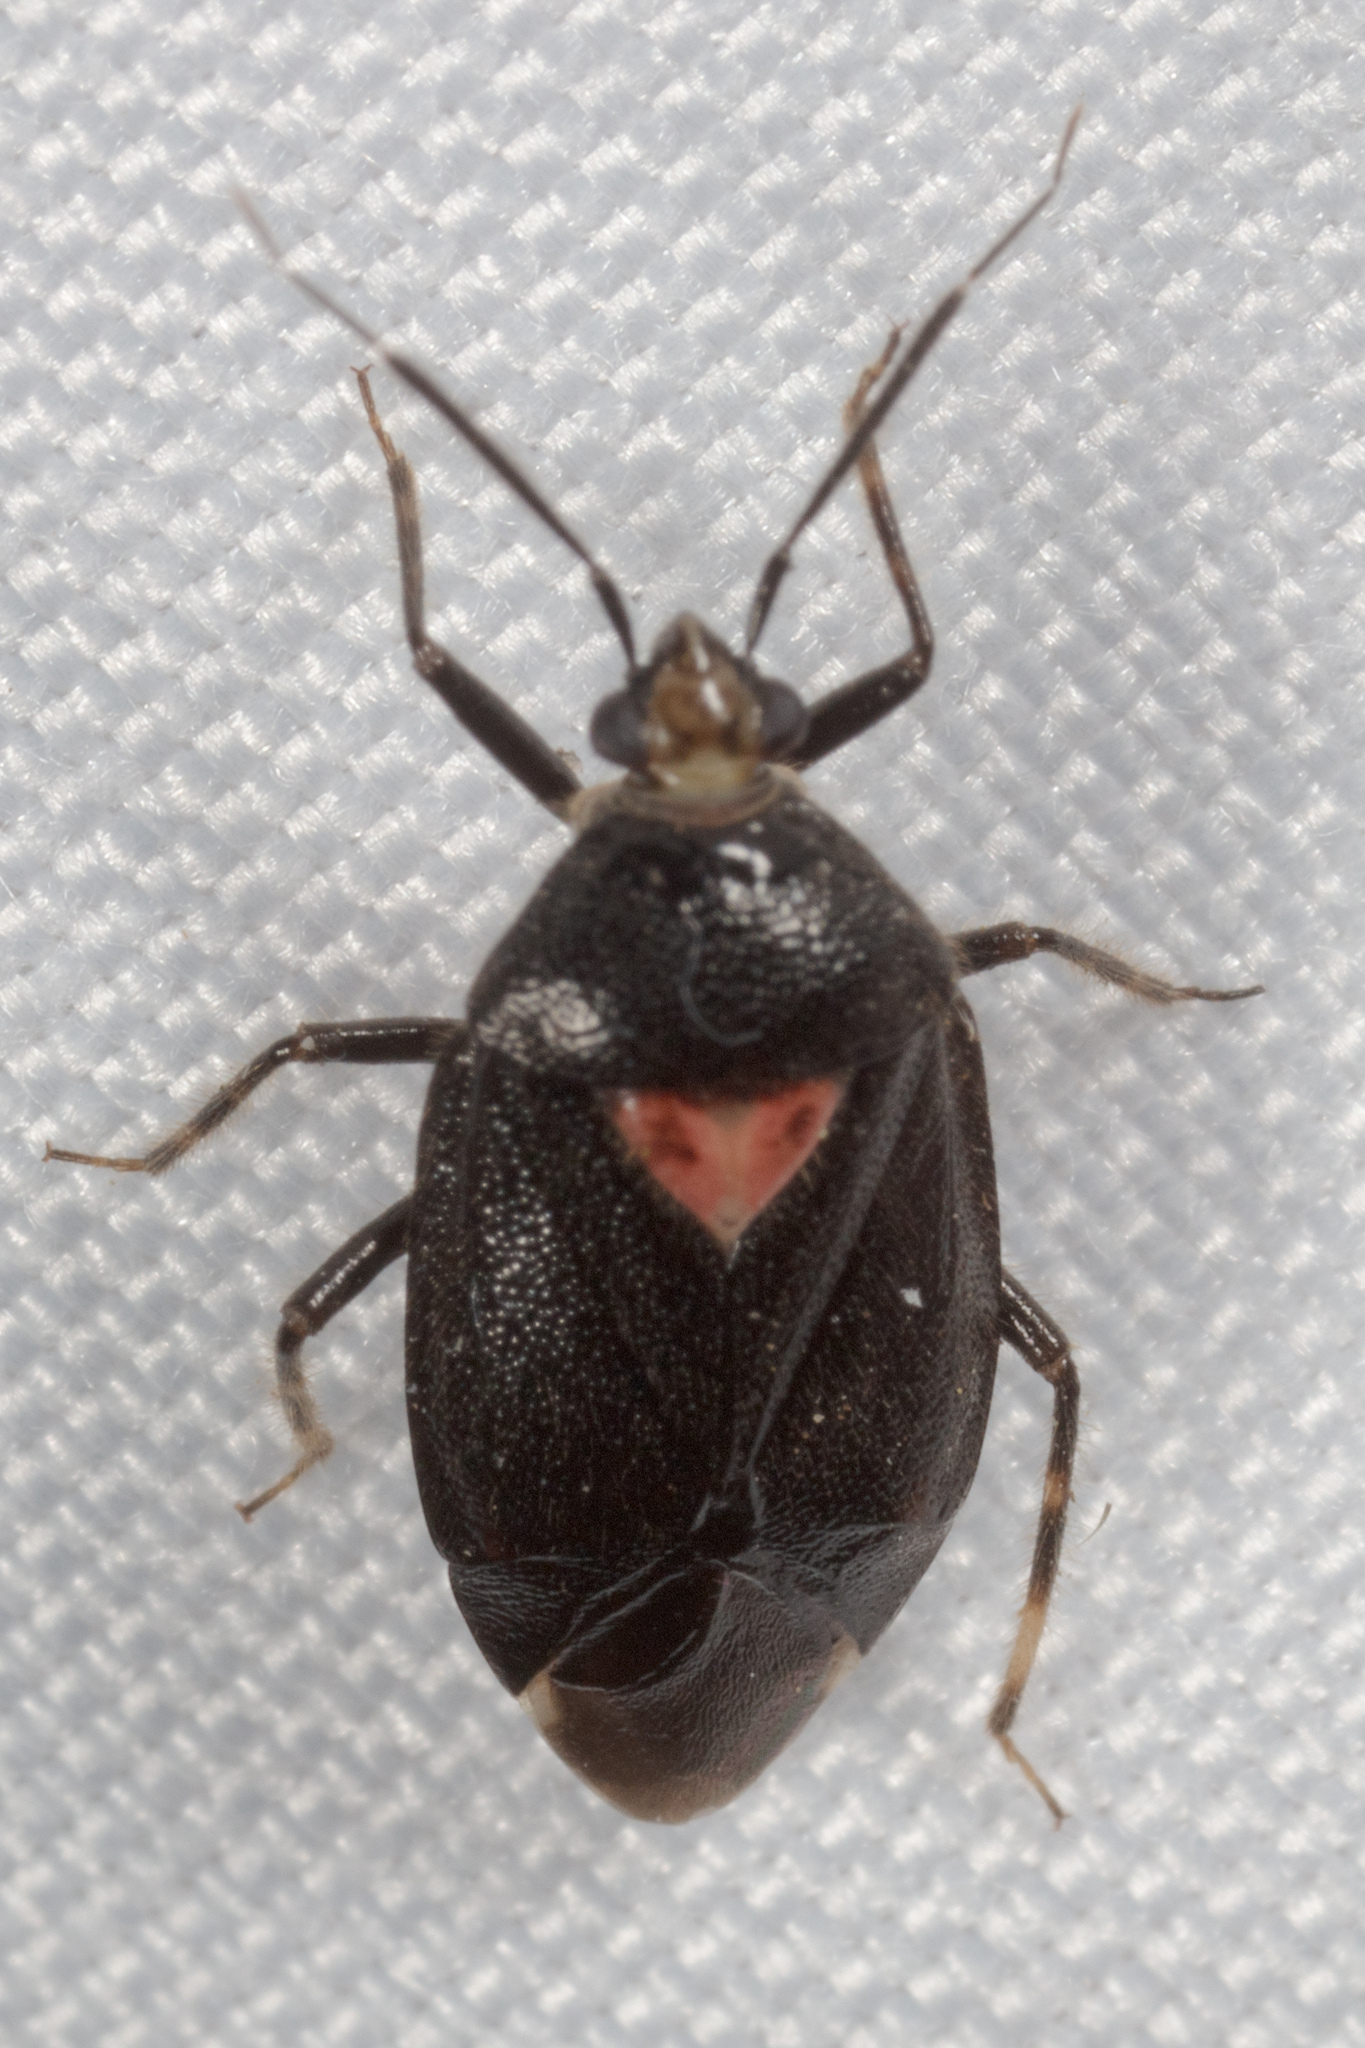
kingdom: Animalia
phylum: Arthropoda
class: Insecta
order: Hemiptera
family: Miridae
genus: Deraeocoris
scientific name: Deraeocoris sayi
